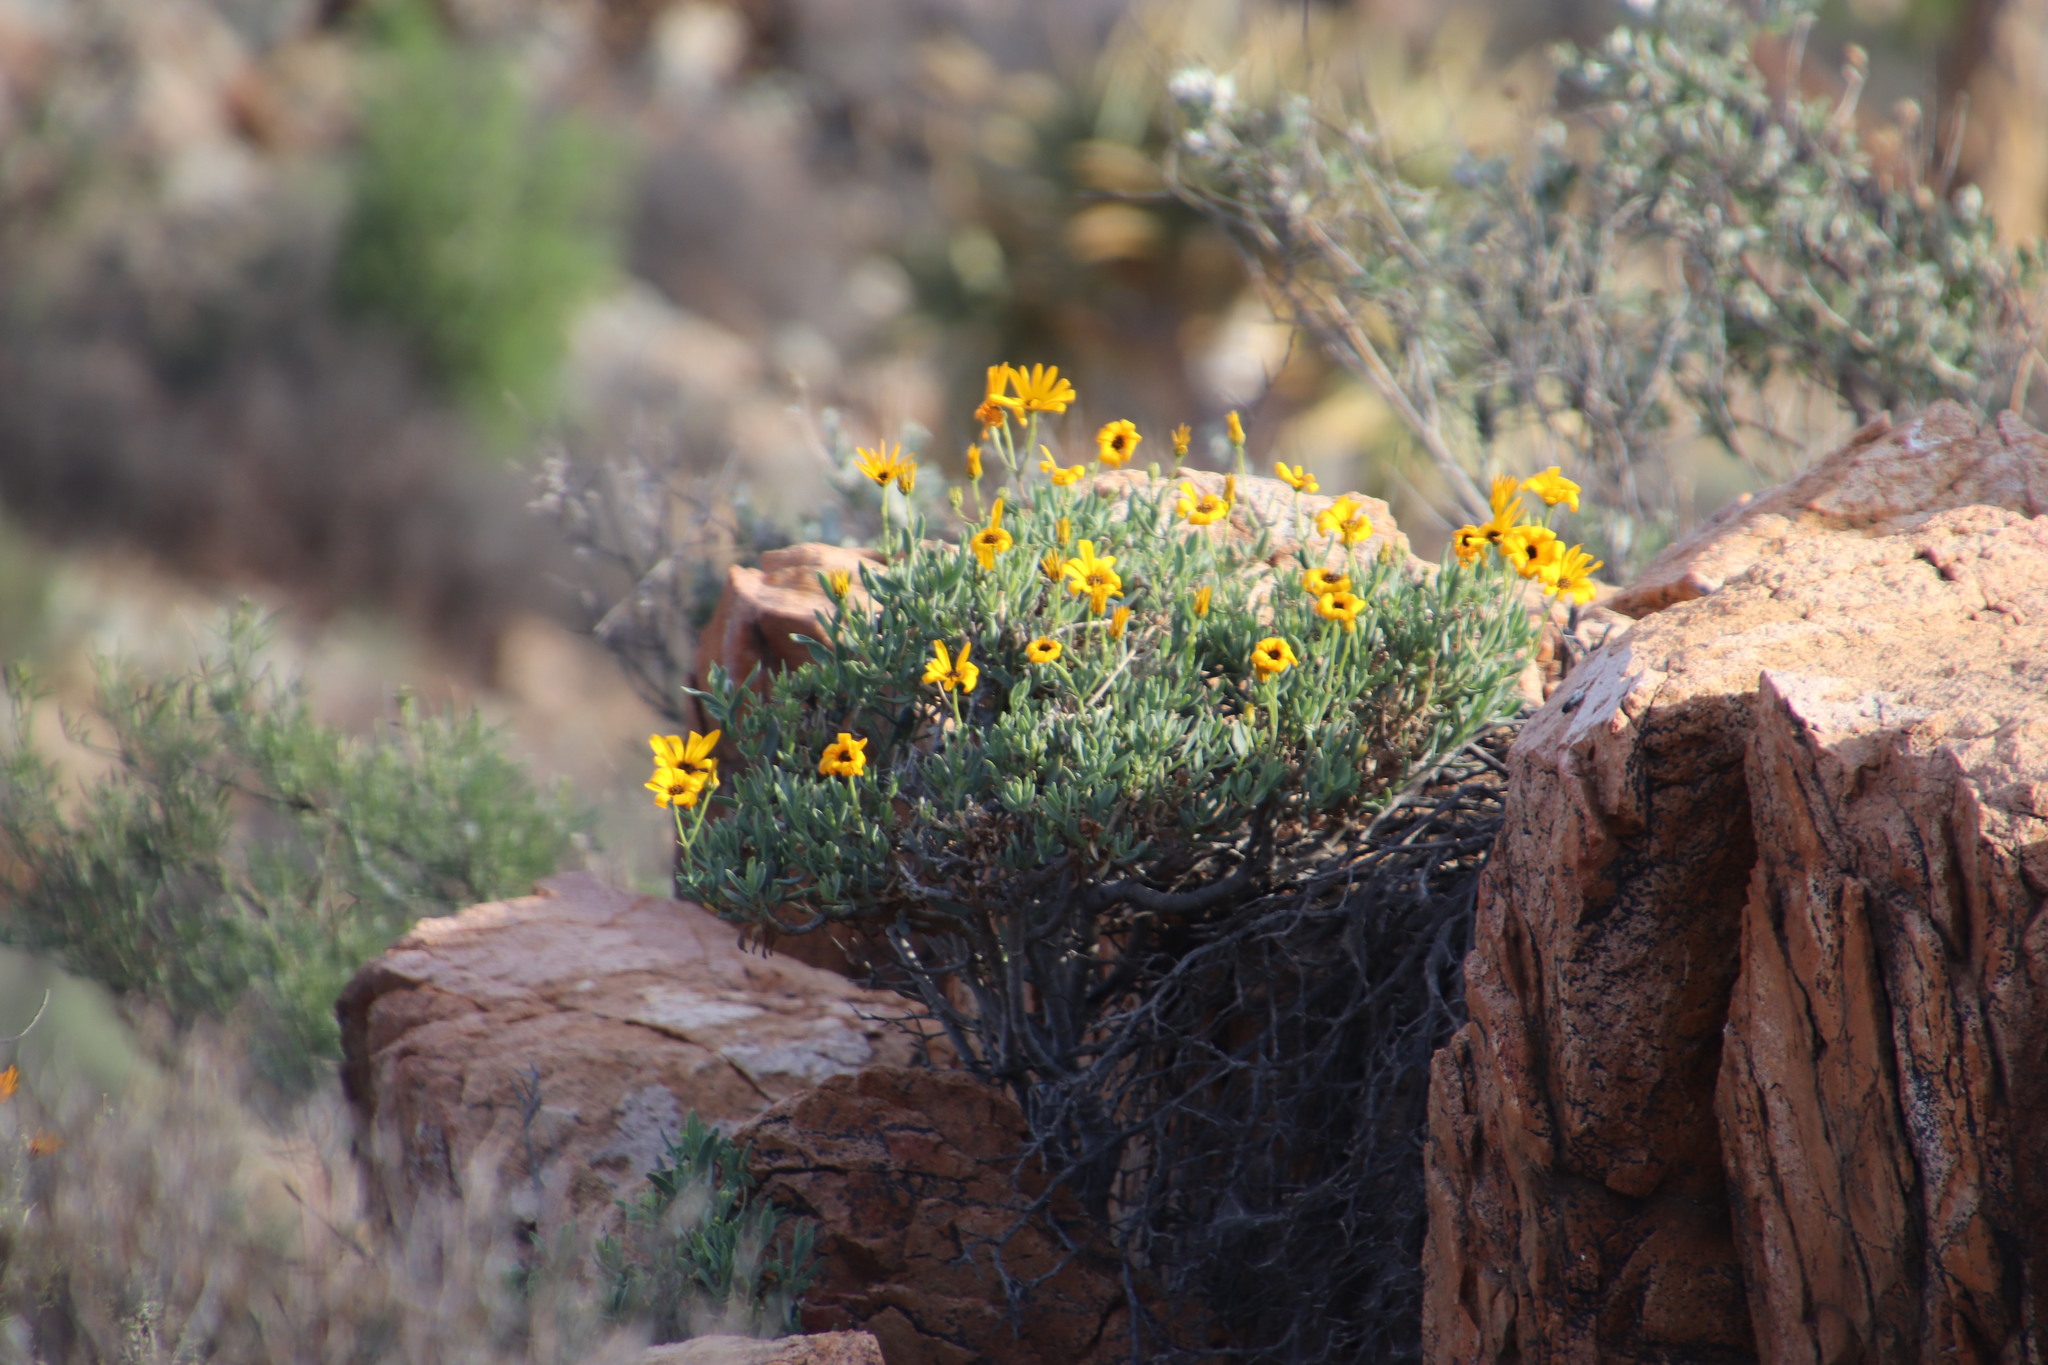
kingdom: Plantae
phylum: Tracheophyta
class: Magnoliopsida
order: Asterales
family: Asteraceae
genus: Osteospermum
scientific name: Osteospermum oppositifolium
